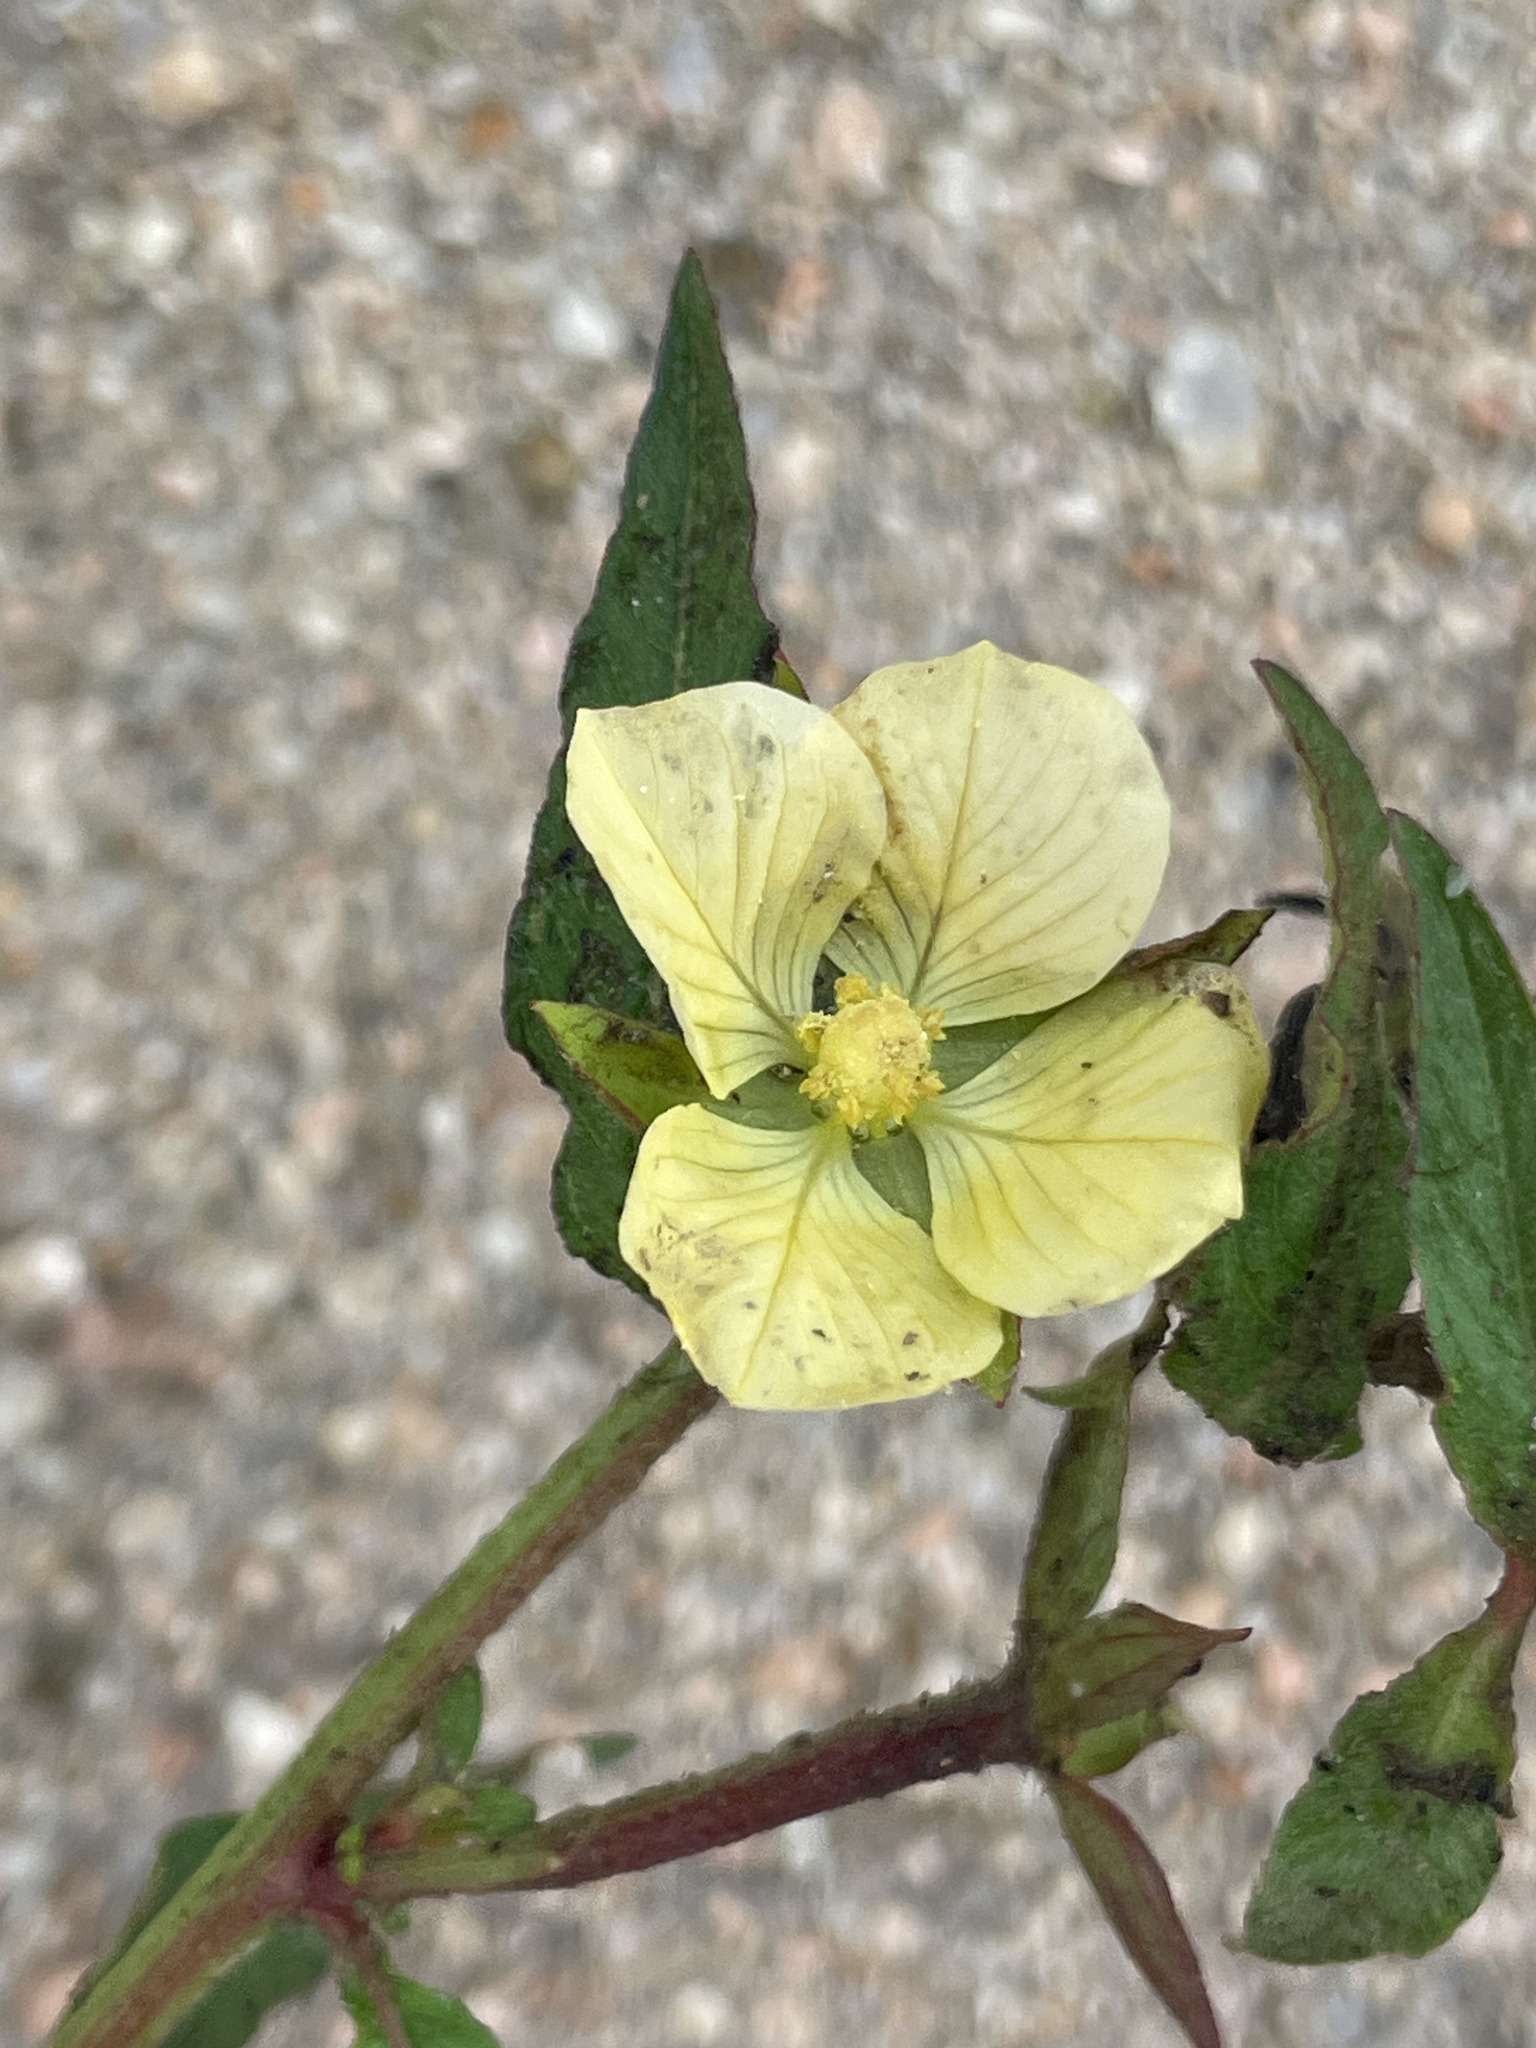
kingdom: Plantae
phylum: Tracheophyta
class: Magnoliopsida
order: Myrtales
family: Onagraceae
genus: Ludwigia
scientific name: Ludwigia octovalvis
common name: Water-primrose
